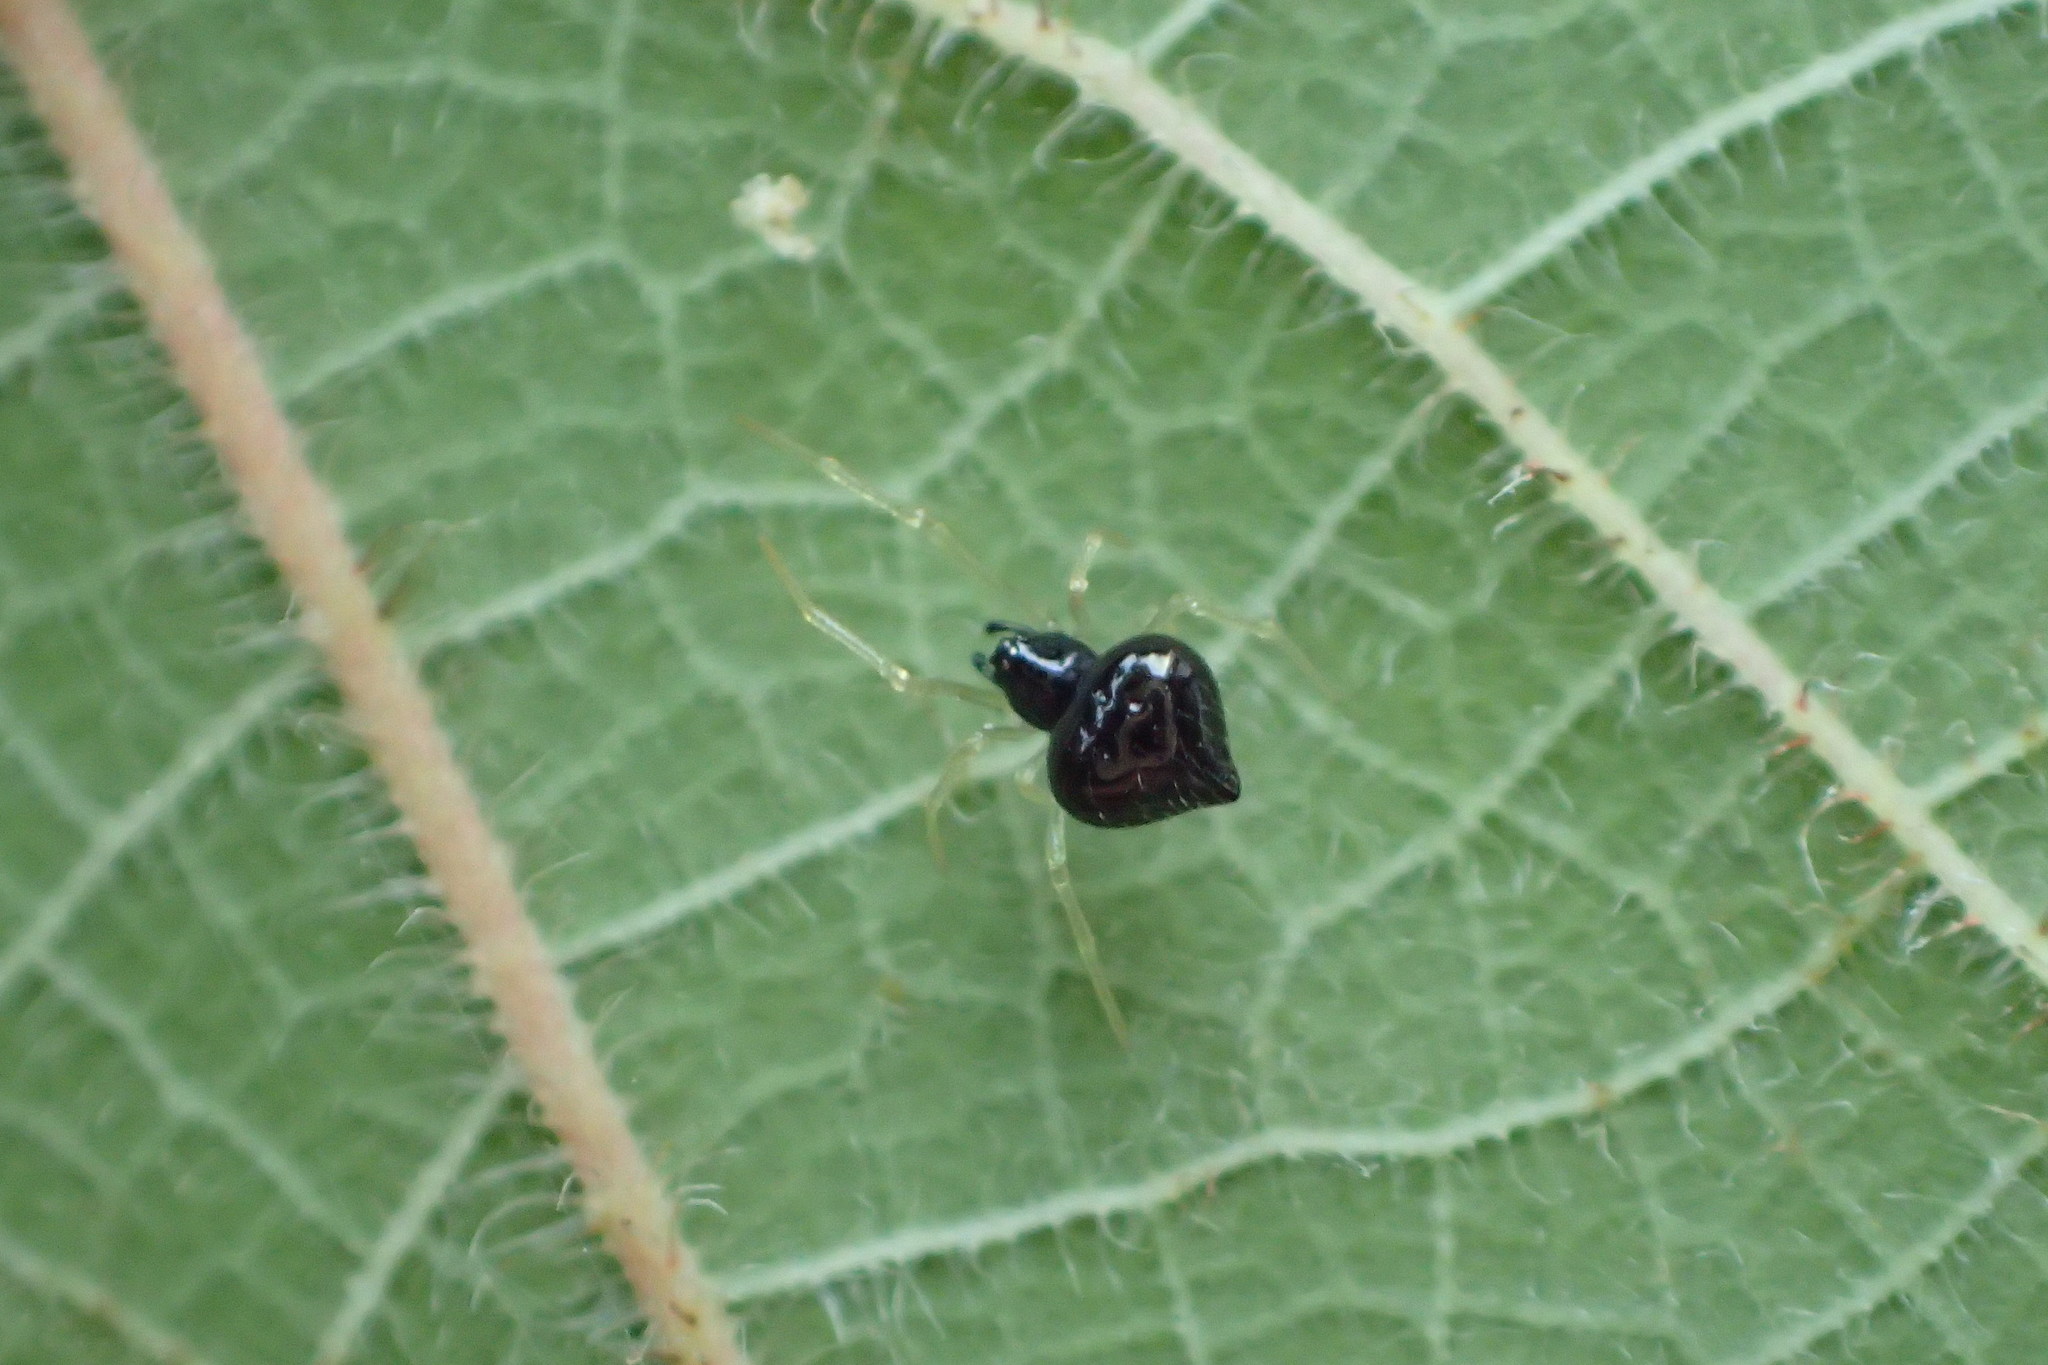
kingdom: Animalia
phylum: Arthropoda
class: Arachnida
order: Araneae
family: Theridiidae
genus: Chikunia
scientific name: Chikunia nigra
